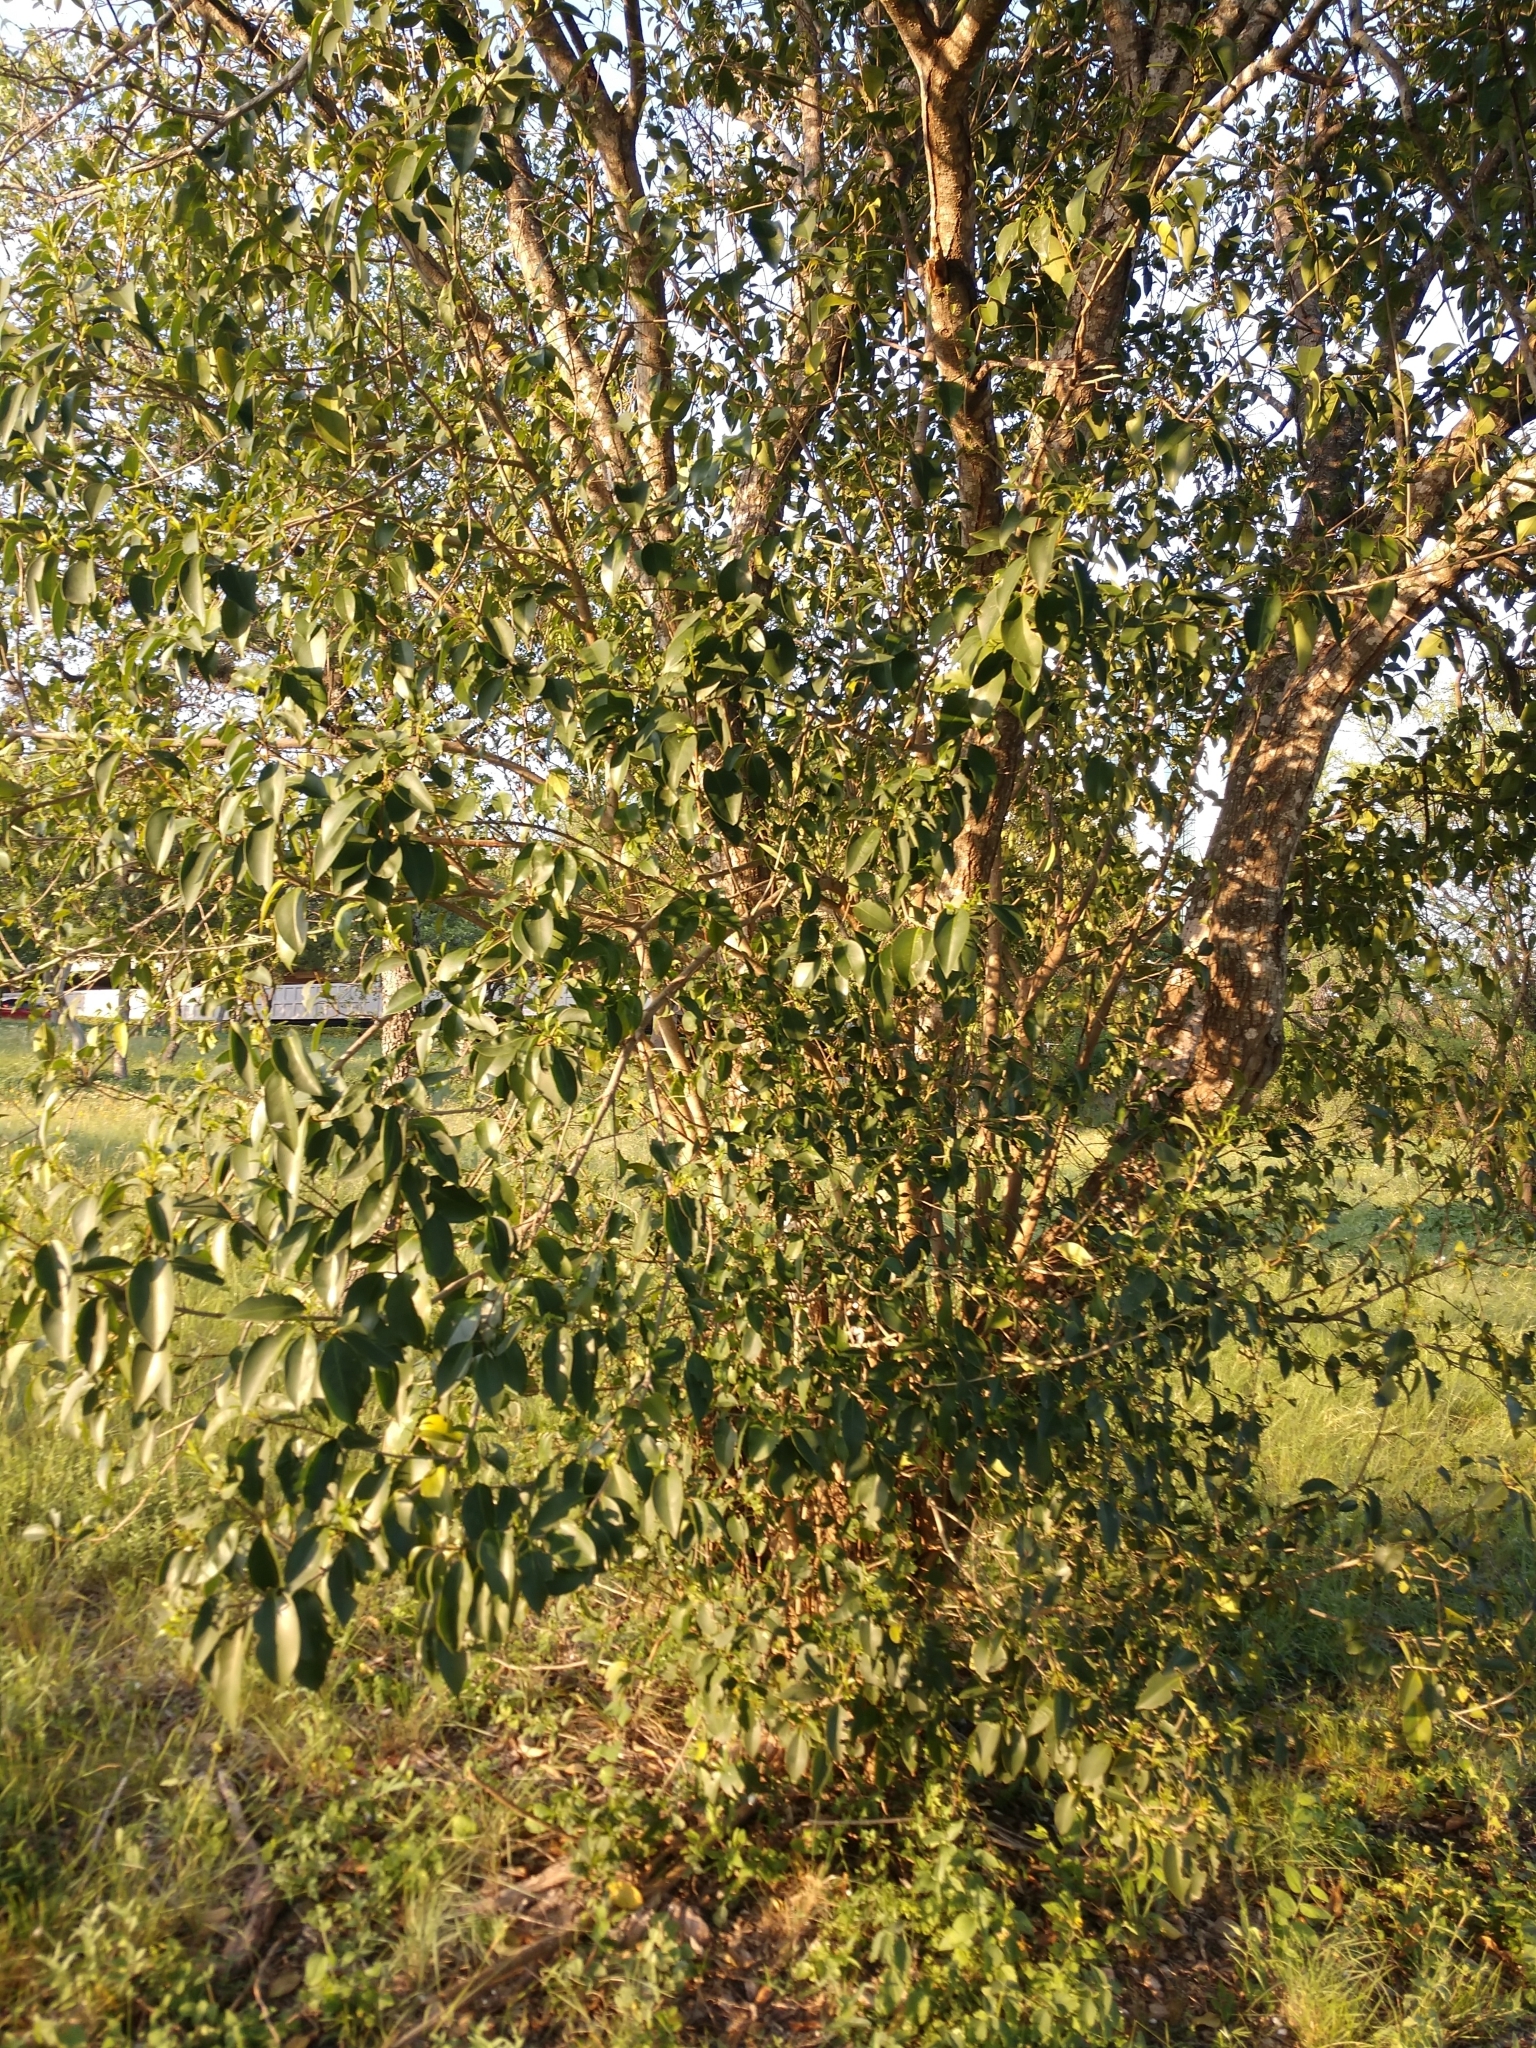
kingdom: Plantae
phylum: Tracheophyta
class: Magnoliopsida
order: Lamiales
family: Oleaceae
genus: Ligustrum
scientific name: Ligustrum lucidum
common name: Glossy privet
